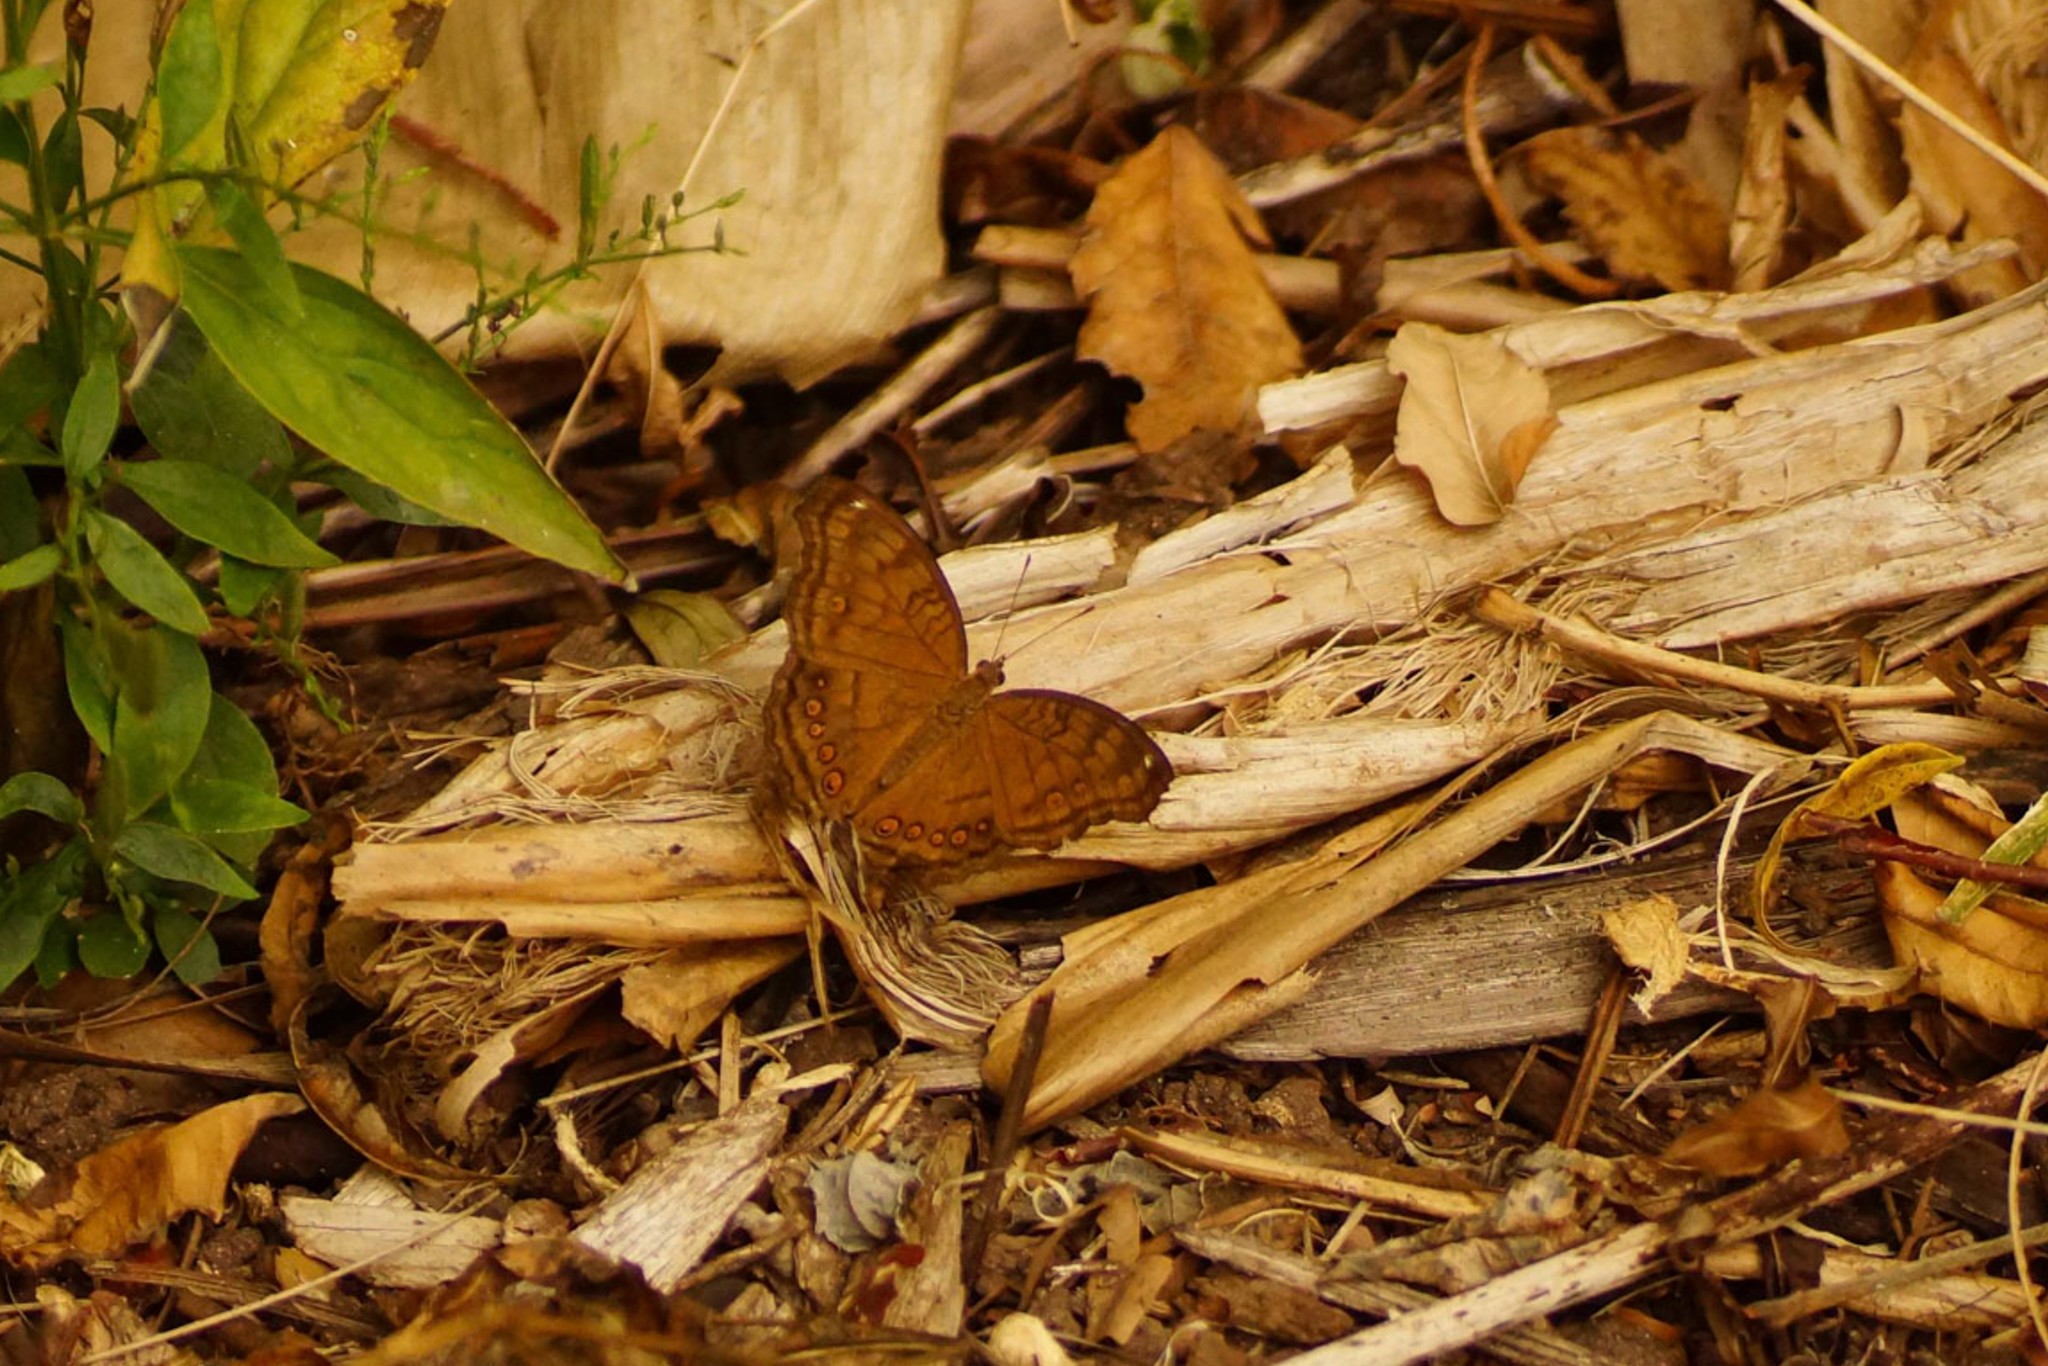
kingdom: Animalia
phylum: Arthropoda
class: Insecta
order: Lepidoptera
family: Nymphalidae
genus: Junonia
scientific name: Junonia hedonia
